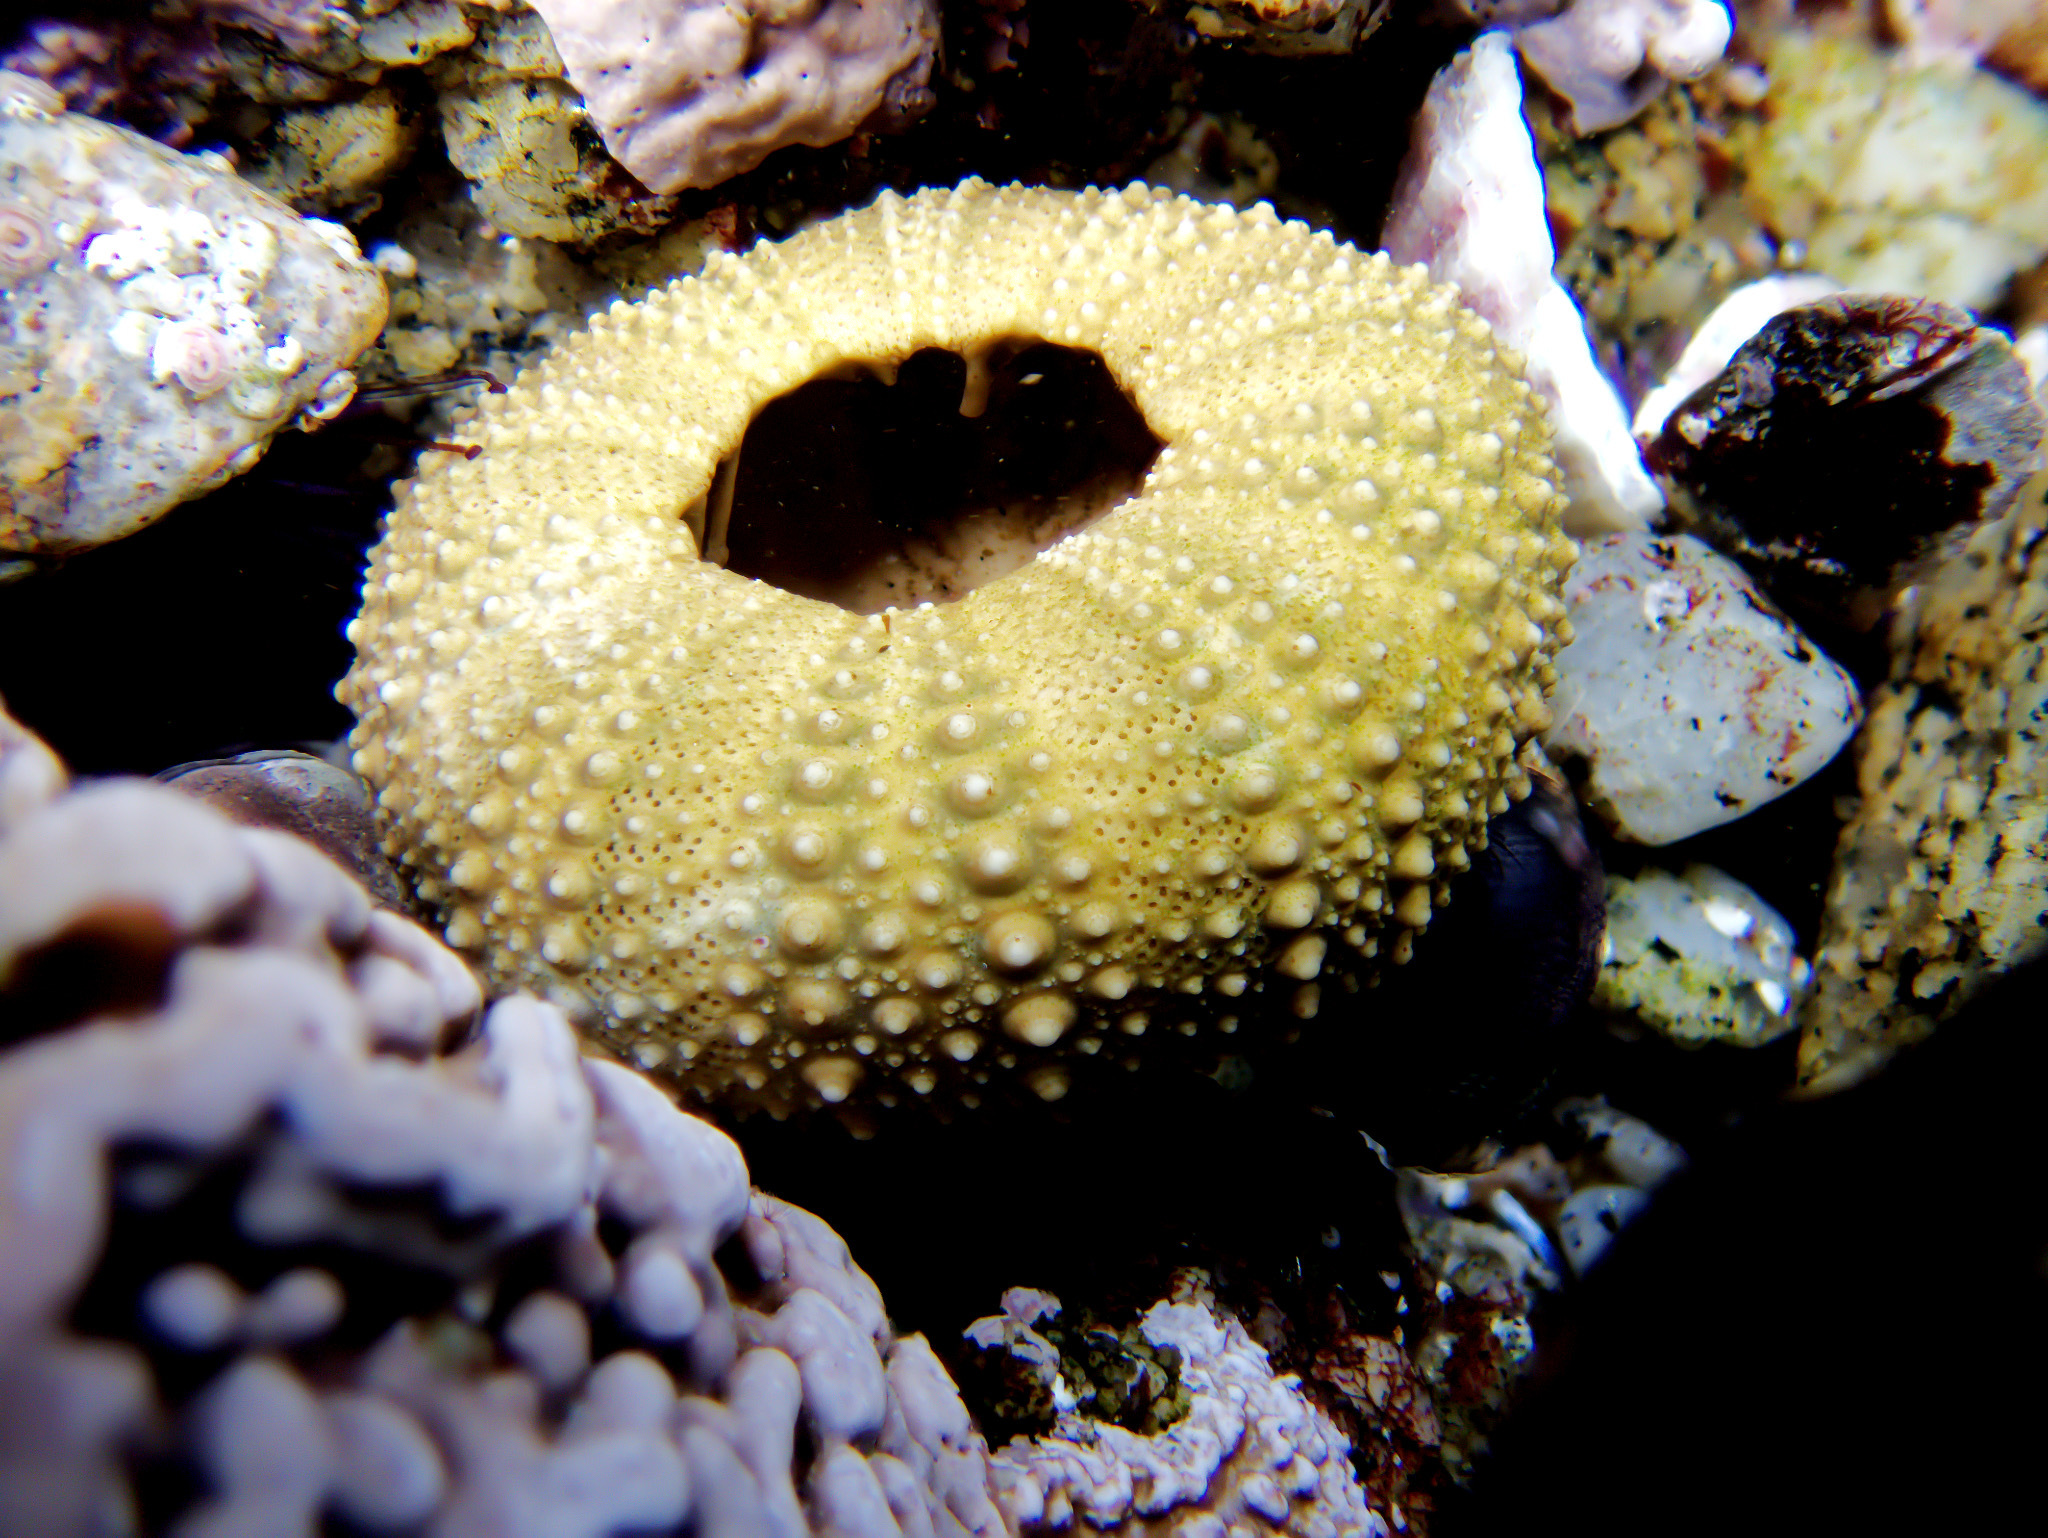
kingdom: Animalia
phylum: Echinodermata
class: Echinoidea
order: Camarodonta
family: Strongylocentrotidae
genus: Strongylocentrotus
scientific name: Strongylocentrotus purpuratus
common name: Purple sea urchin
